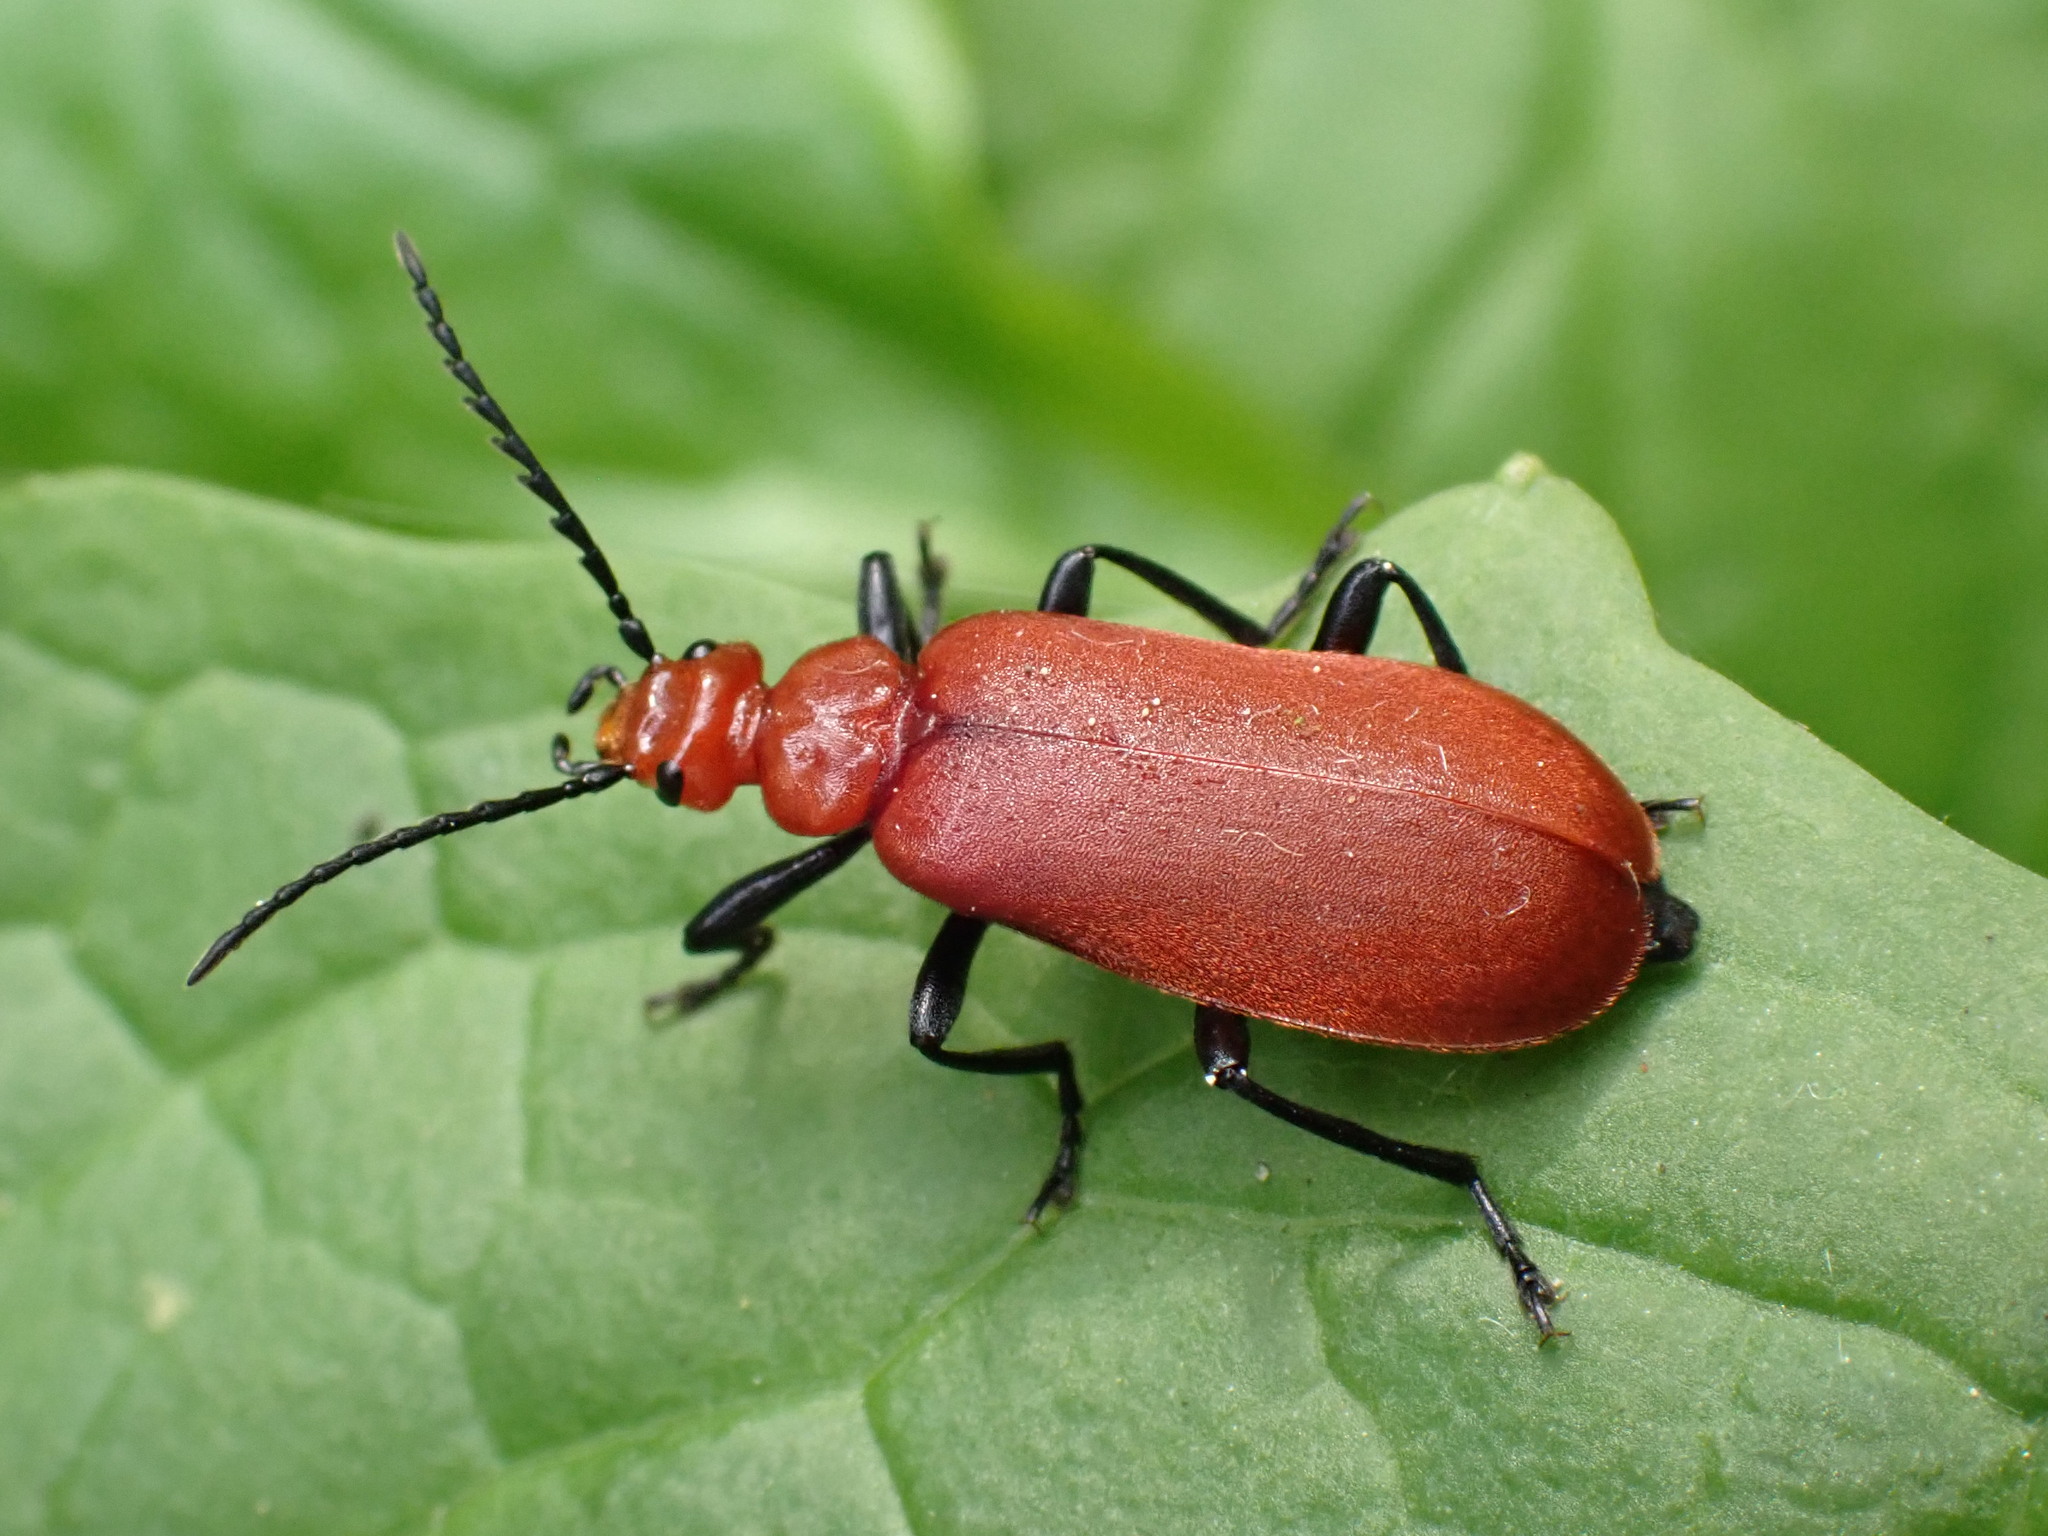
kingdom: Animalia
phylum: Arthropoda
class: Insecta
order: Coleoptera
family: Pyrochroidae
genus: Pyrochroa
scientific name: Pyrochroa serraticornis
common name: Red-headed cardinal beetle
